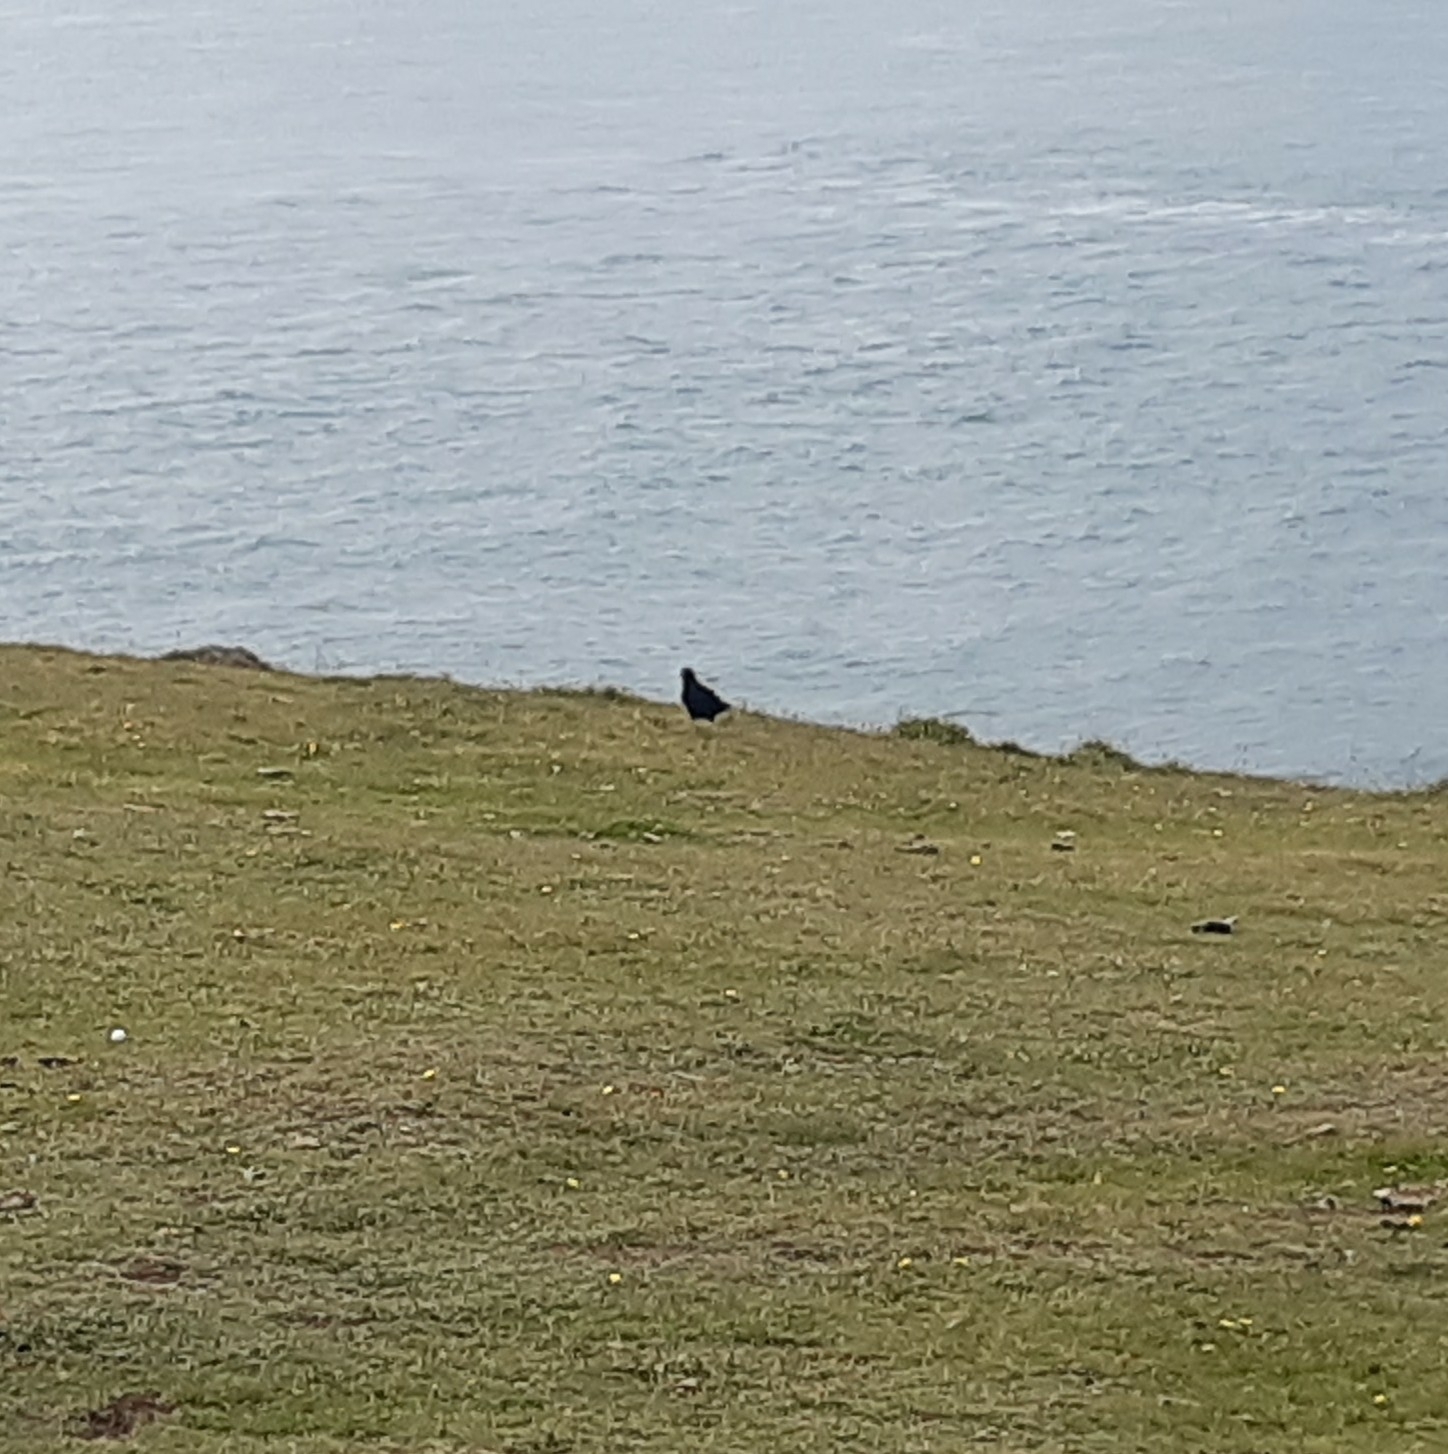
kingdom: Animalia
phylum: Chordata
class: Aves
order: Passeriformes
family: Corvidae
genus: Pyrrhocorax
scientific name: Pyrrhocorax pyrrhocorax
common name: Red-billed chough
